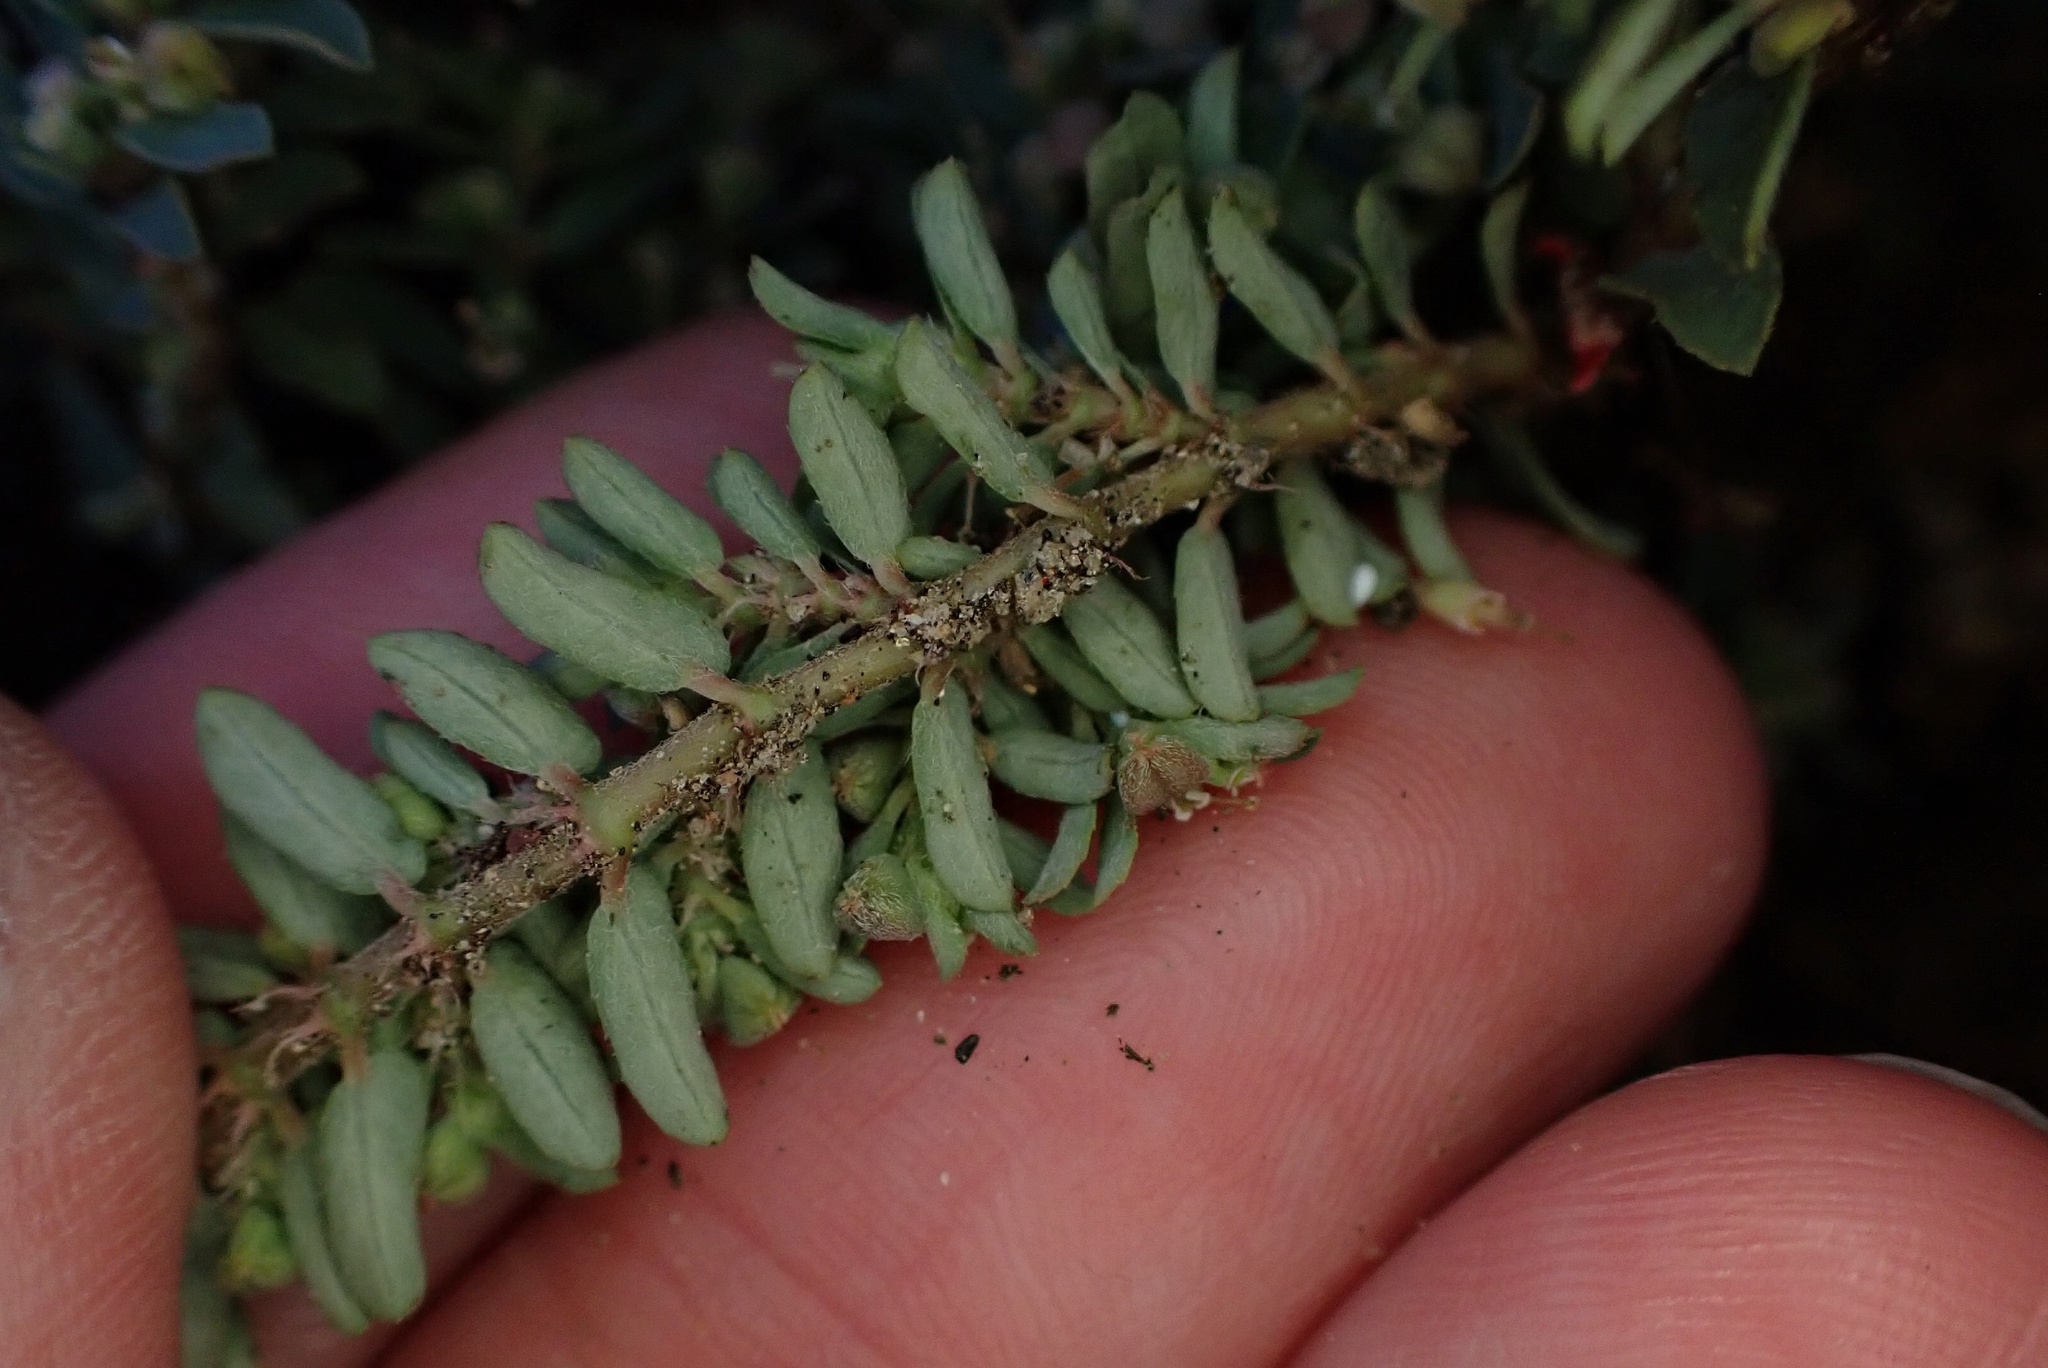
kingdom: Plantae
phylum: Tracheophyta
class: Magnoliopsida
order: Malpighiales
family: Euphorbiaceae
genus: Euphorbia
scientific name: Euphorbia maculata
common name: Spotted spurge
